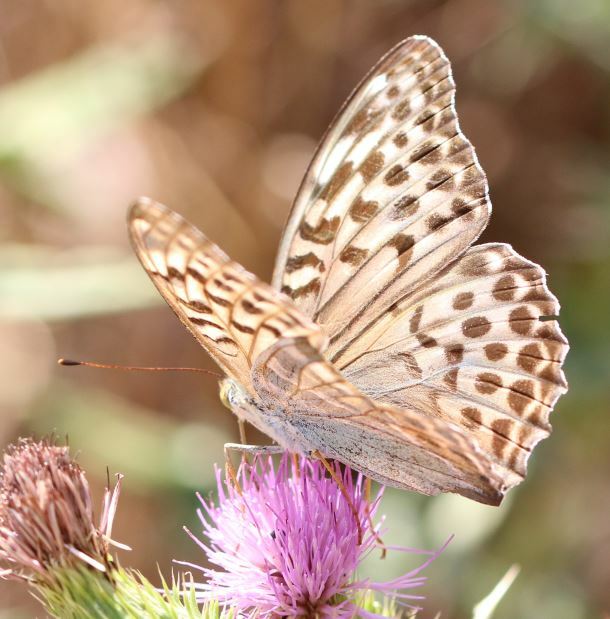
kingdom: Animalia
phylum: Arthropoda
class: Insecta
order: Lepidoptera
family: Nymphalidae
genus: Argynnis
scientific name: Argynnis paphia
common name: Silver-washed fritillary
